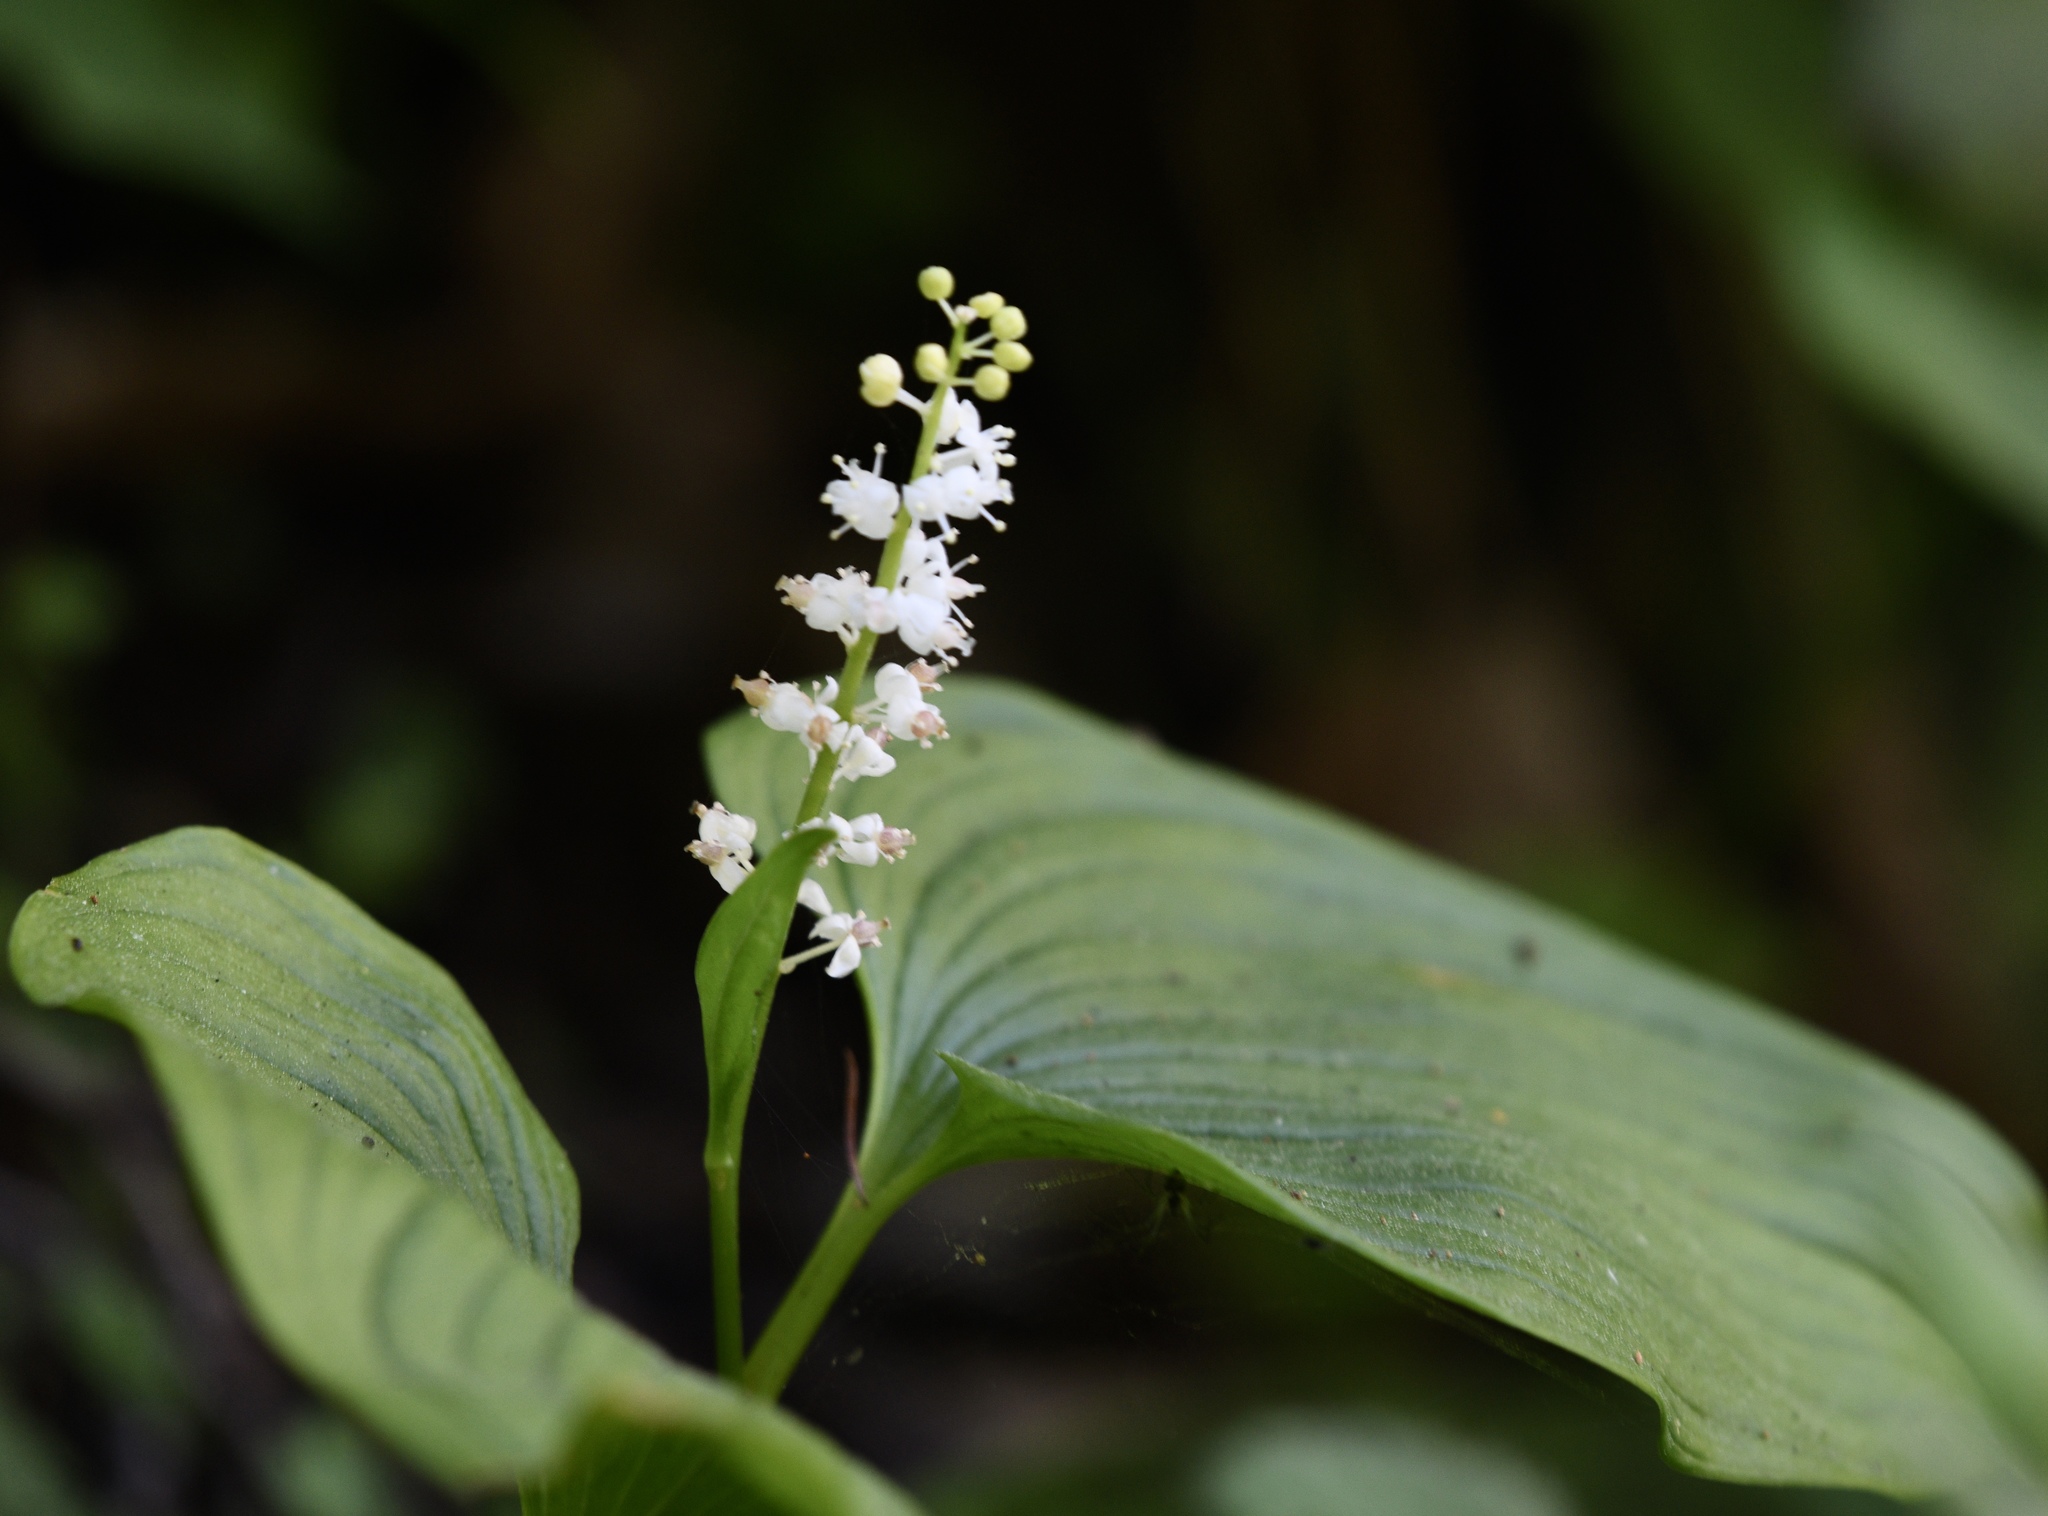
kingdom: Plantae
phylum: Tracheophyta
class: Liliopsida
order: Asparagales
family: Asparagaceae
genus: Maianthemum
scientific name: Maianthemum dilatatum
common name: False lily-of-the-valley
